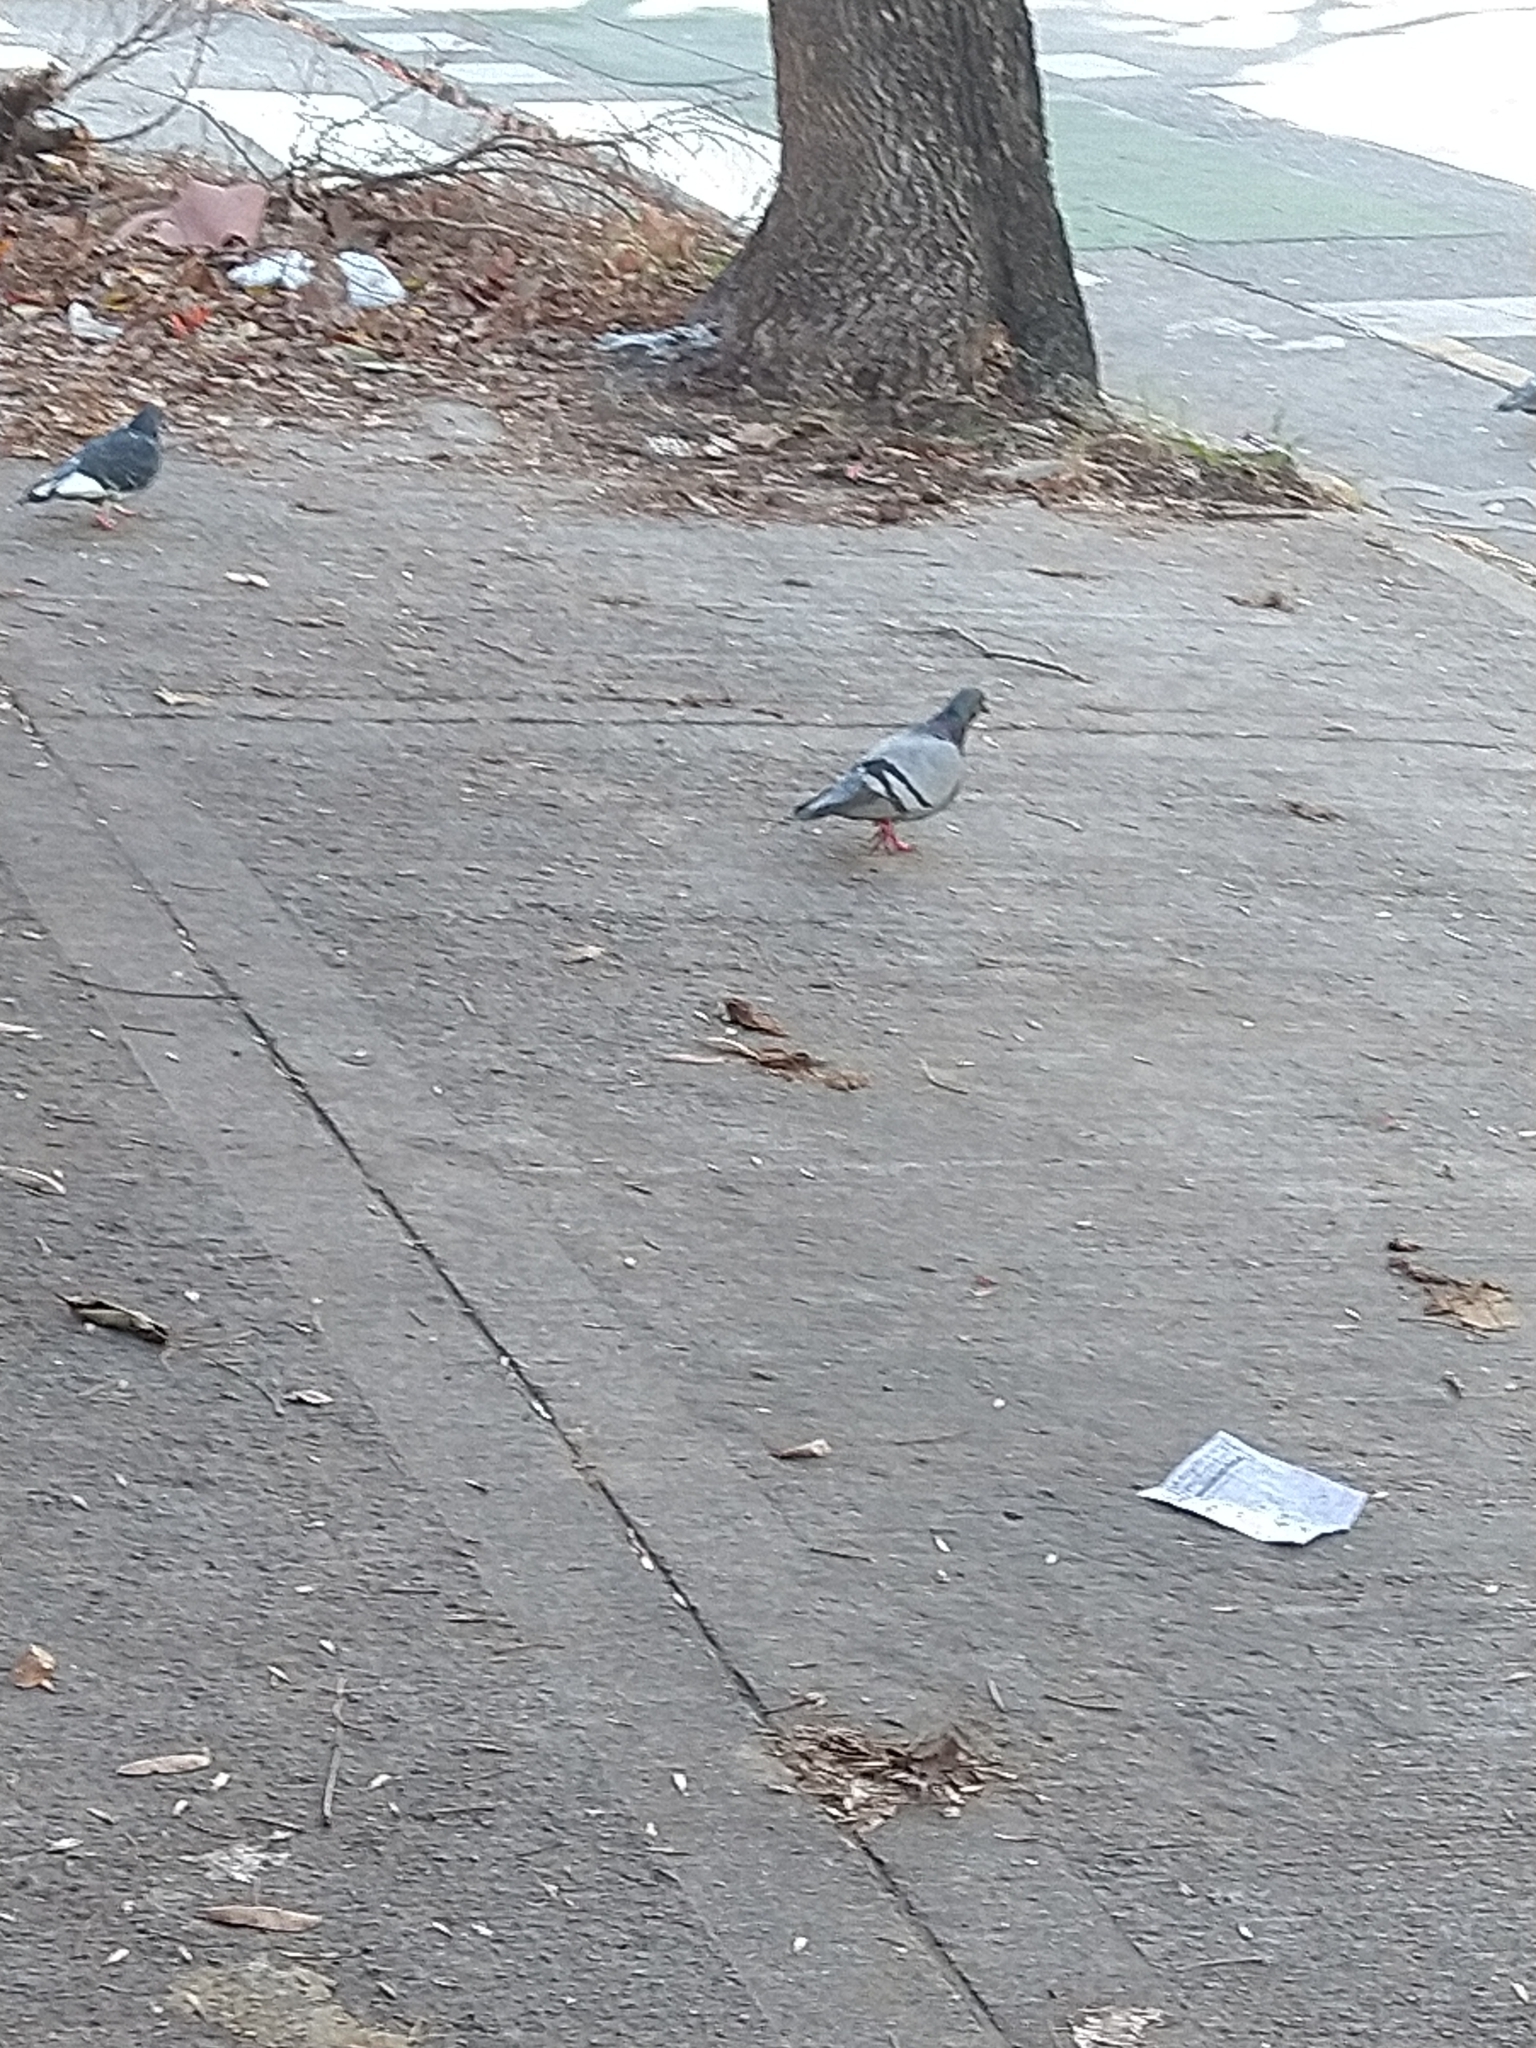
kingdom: Animalia
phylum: Chordata
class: Aves
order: Columbiformes
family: Columbidae
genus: Columba
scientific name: Columba livia
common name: Rock pigeon
